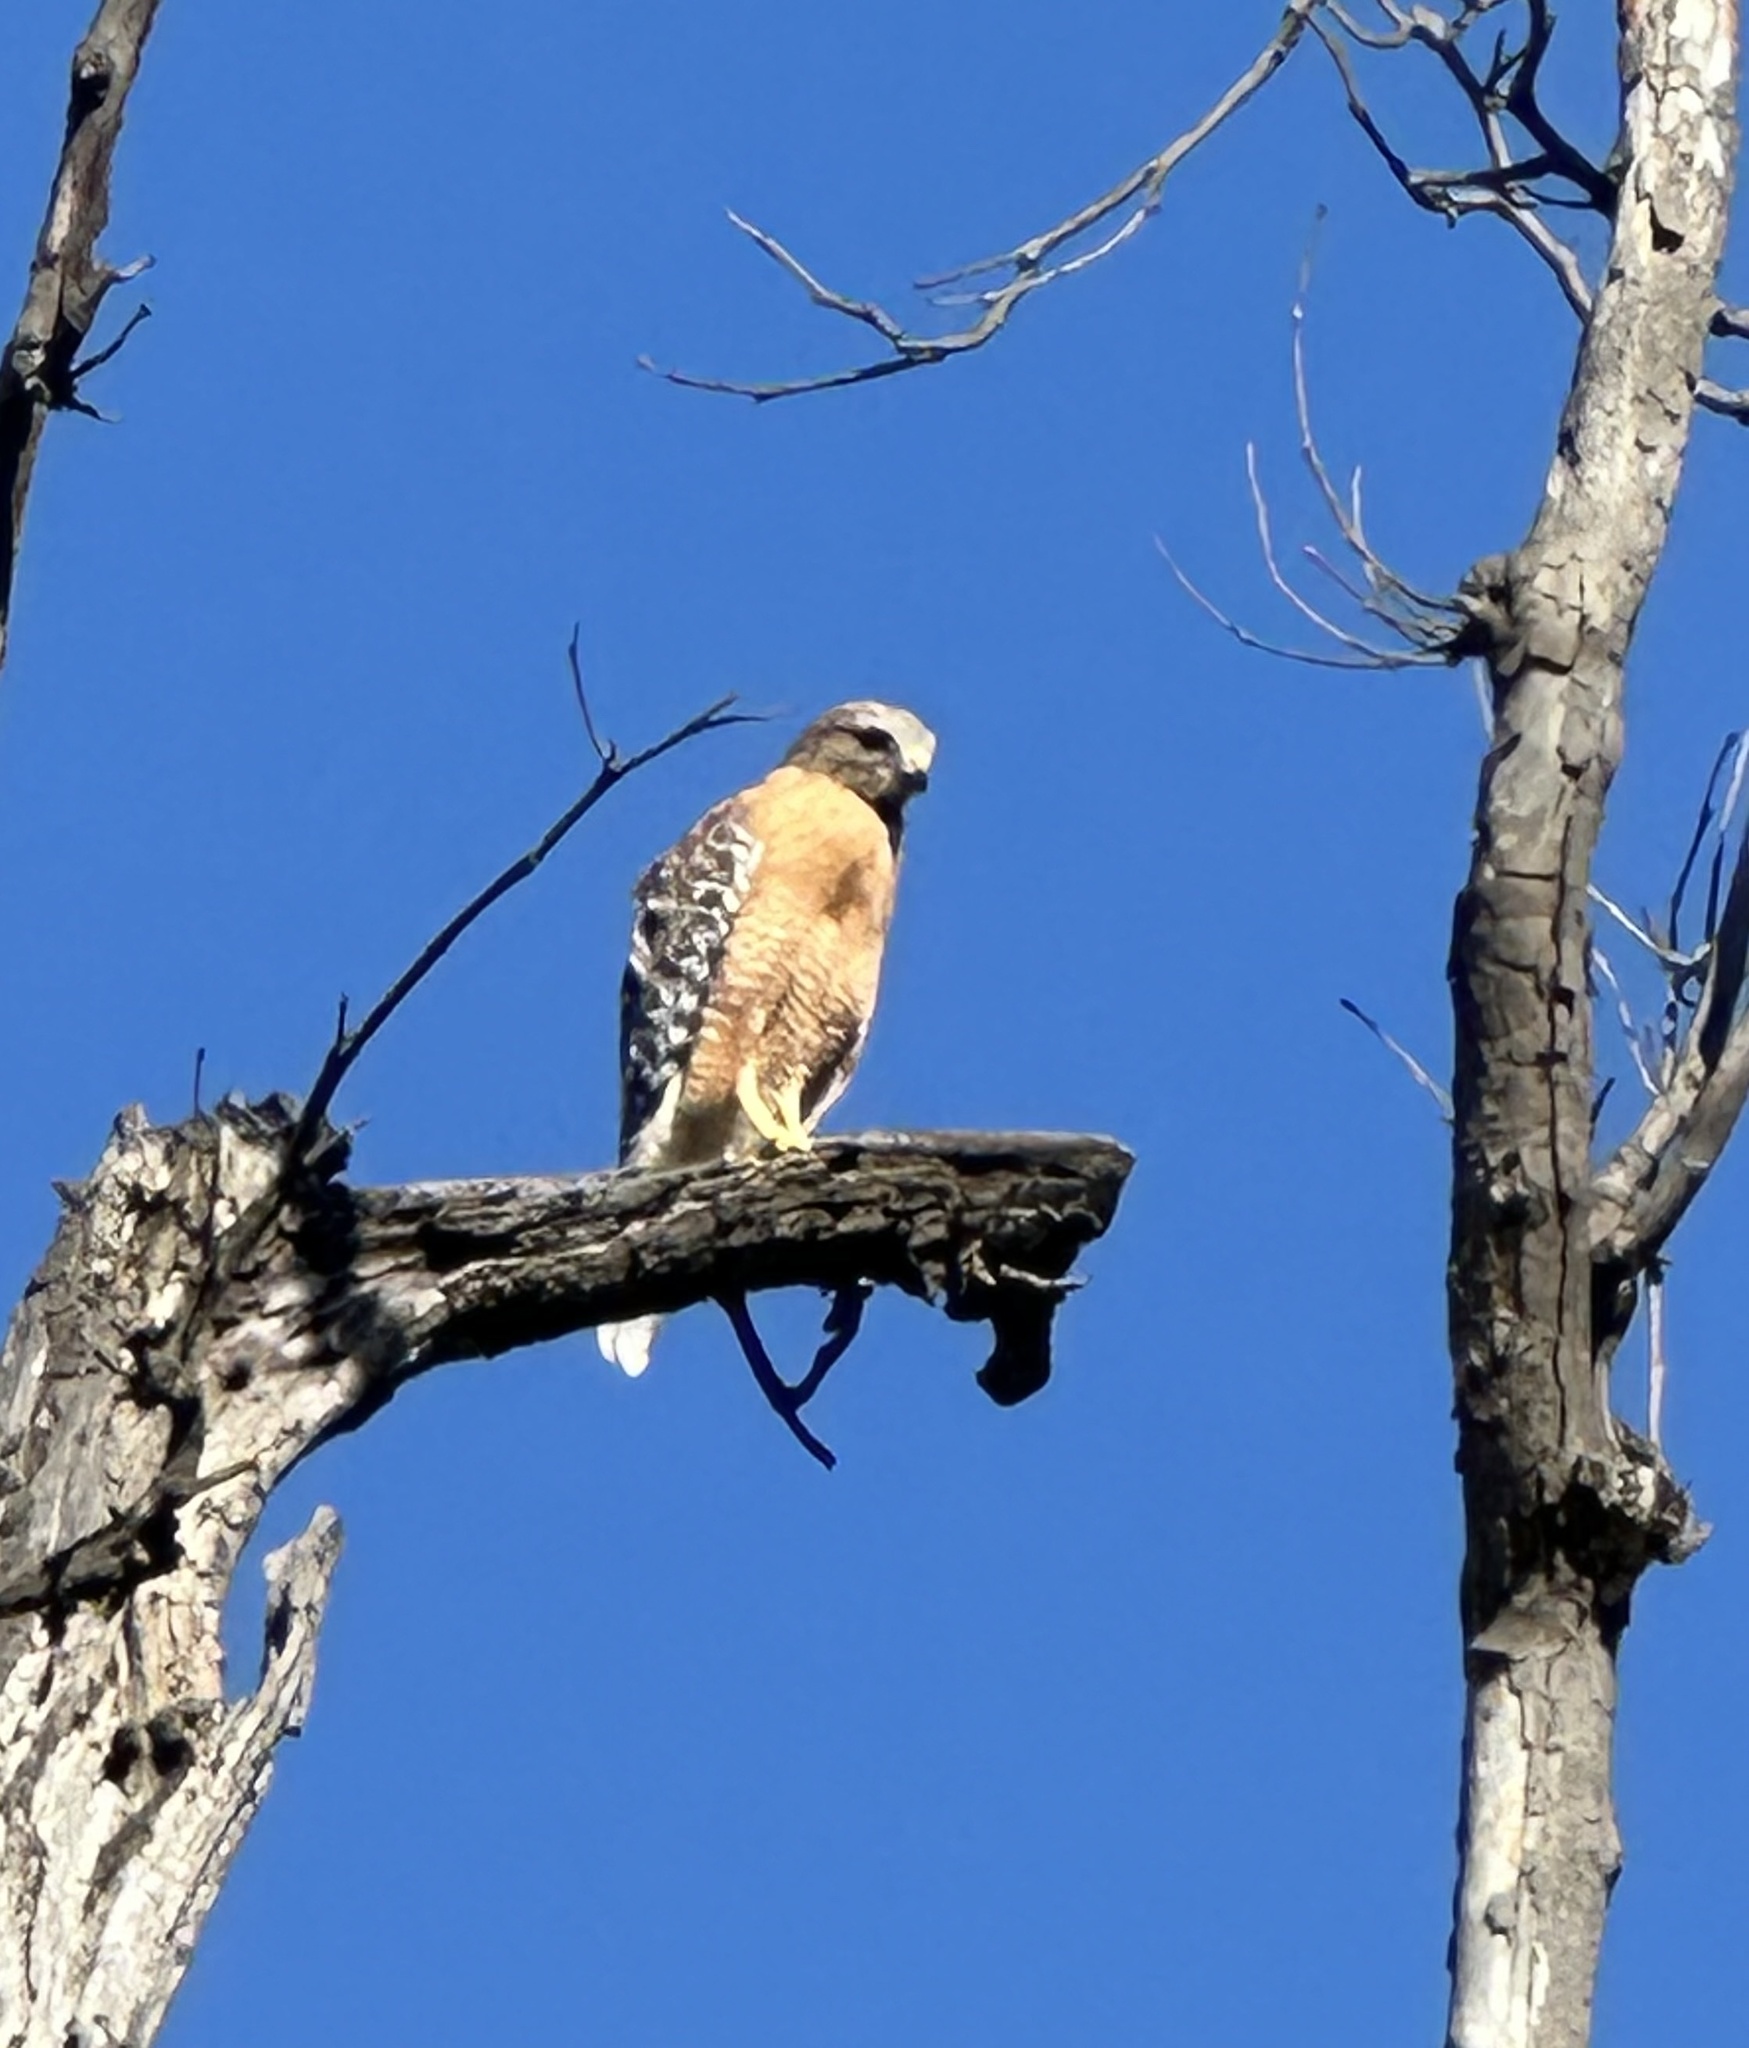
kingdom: Animalia
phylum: Chordata
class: Aves
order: Accipitriformes
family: Accipitridae
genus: Buteo
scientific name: Buteo lineatus
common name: Red-shouldered hawk
